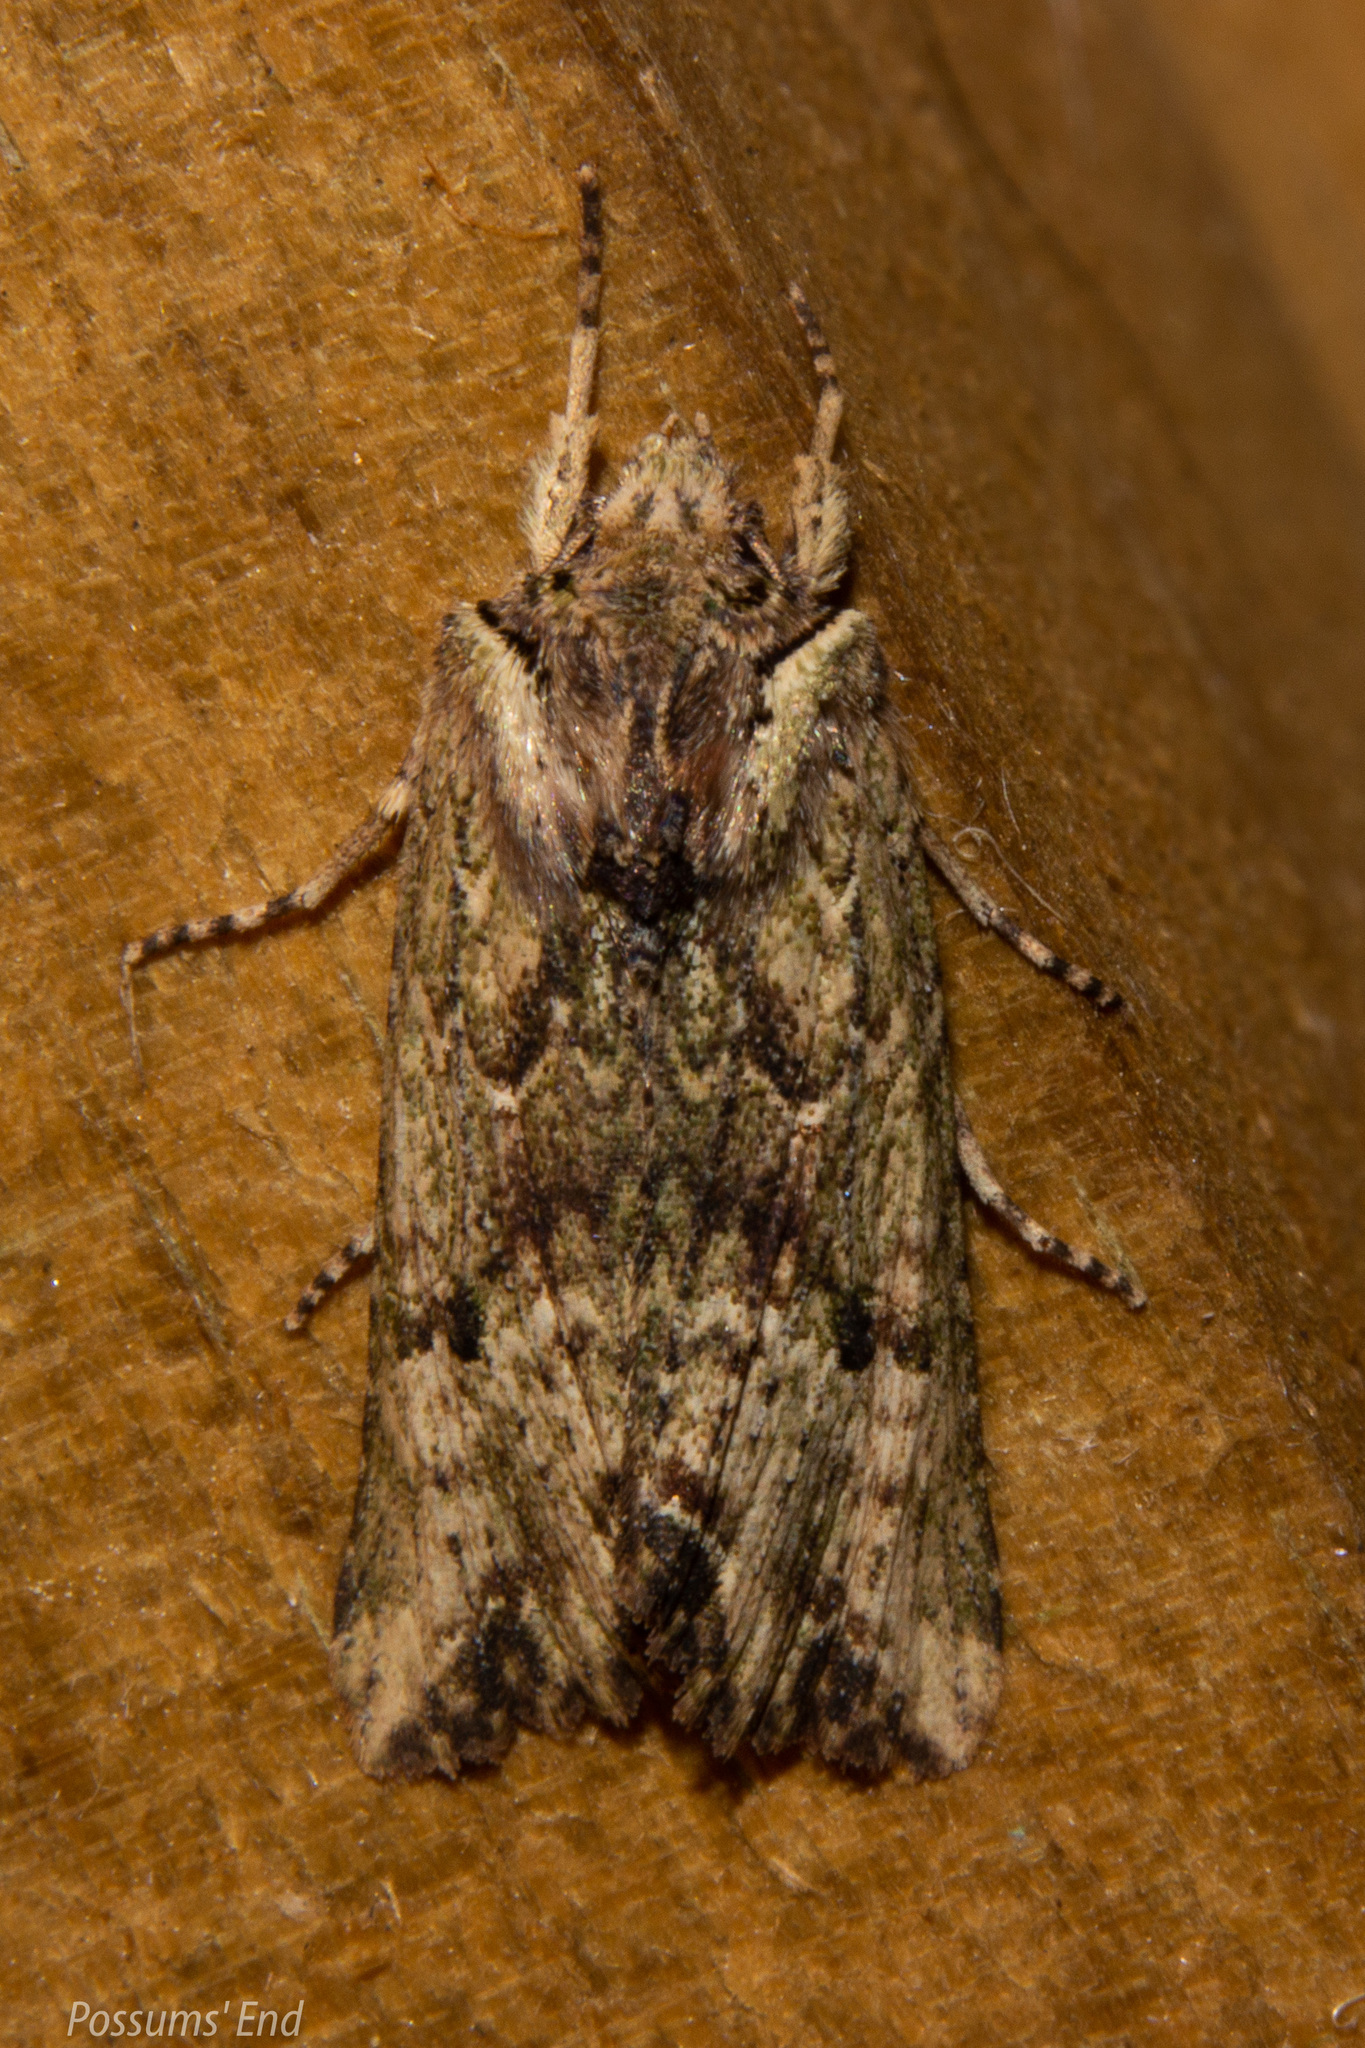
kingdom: Animalia
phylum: Arthropoda
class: Insecta
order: Lepidoptera
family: Noctuidae
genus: Meterana
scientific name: Meterana coeleno
